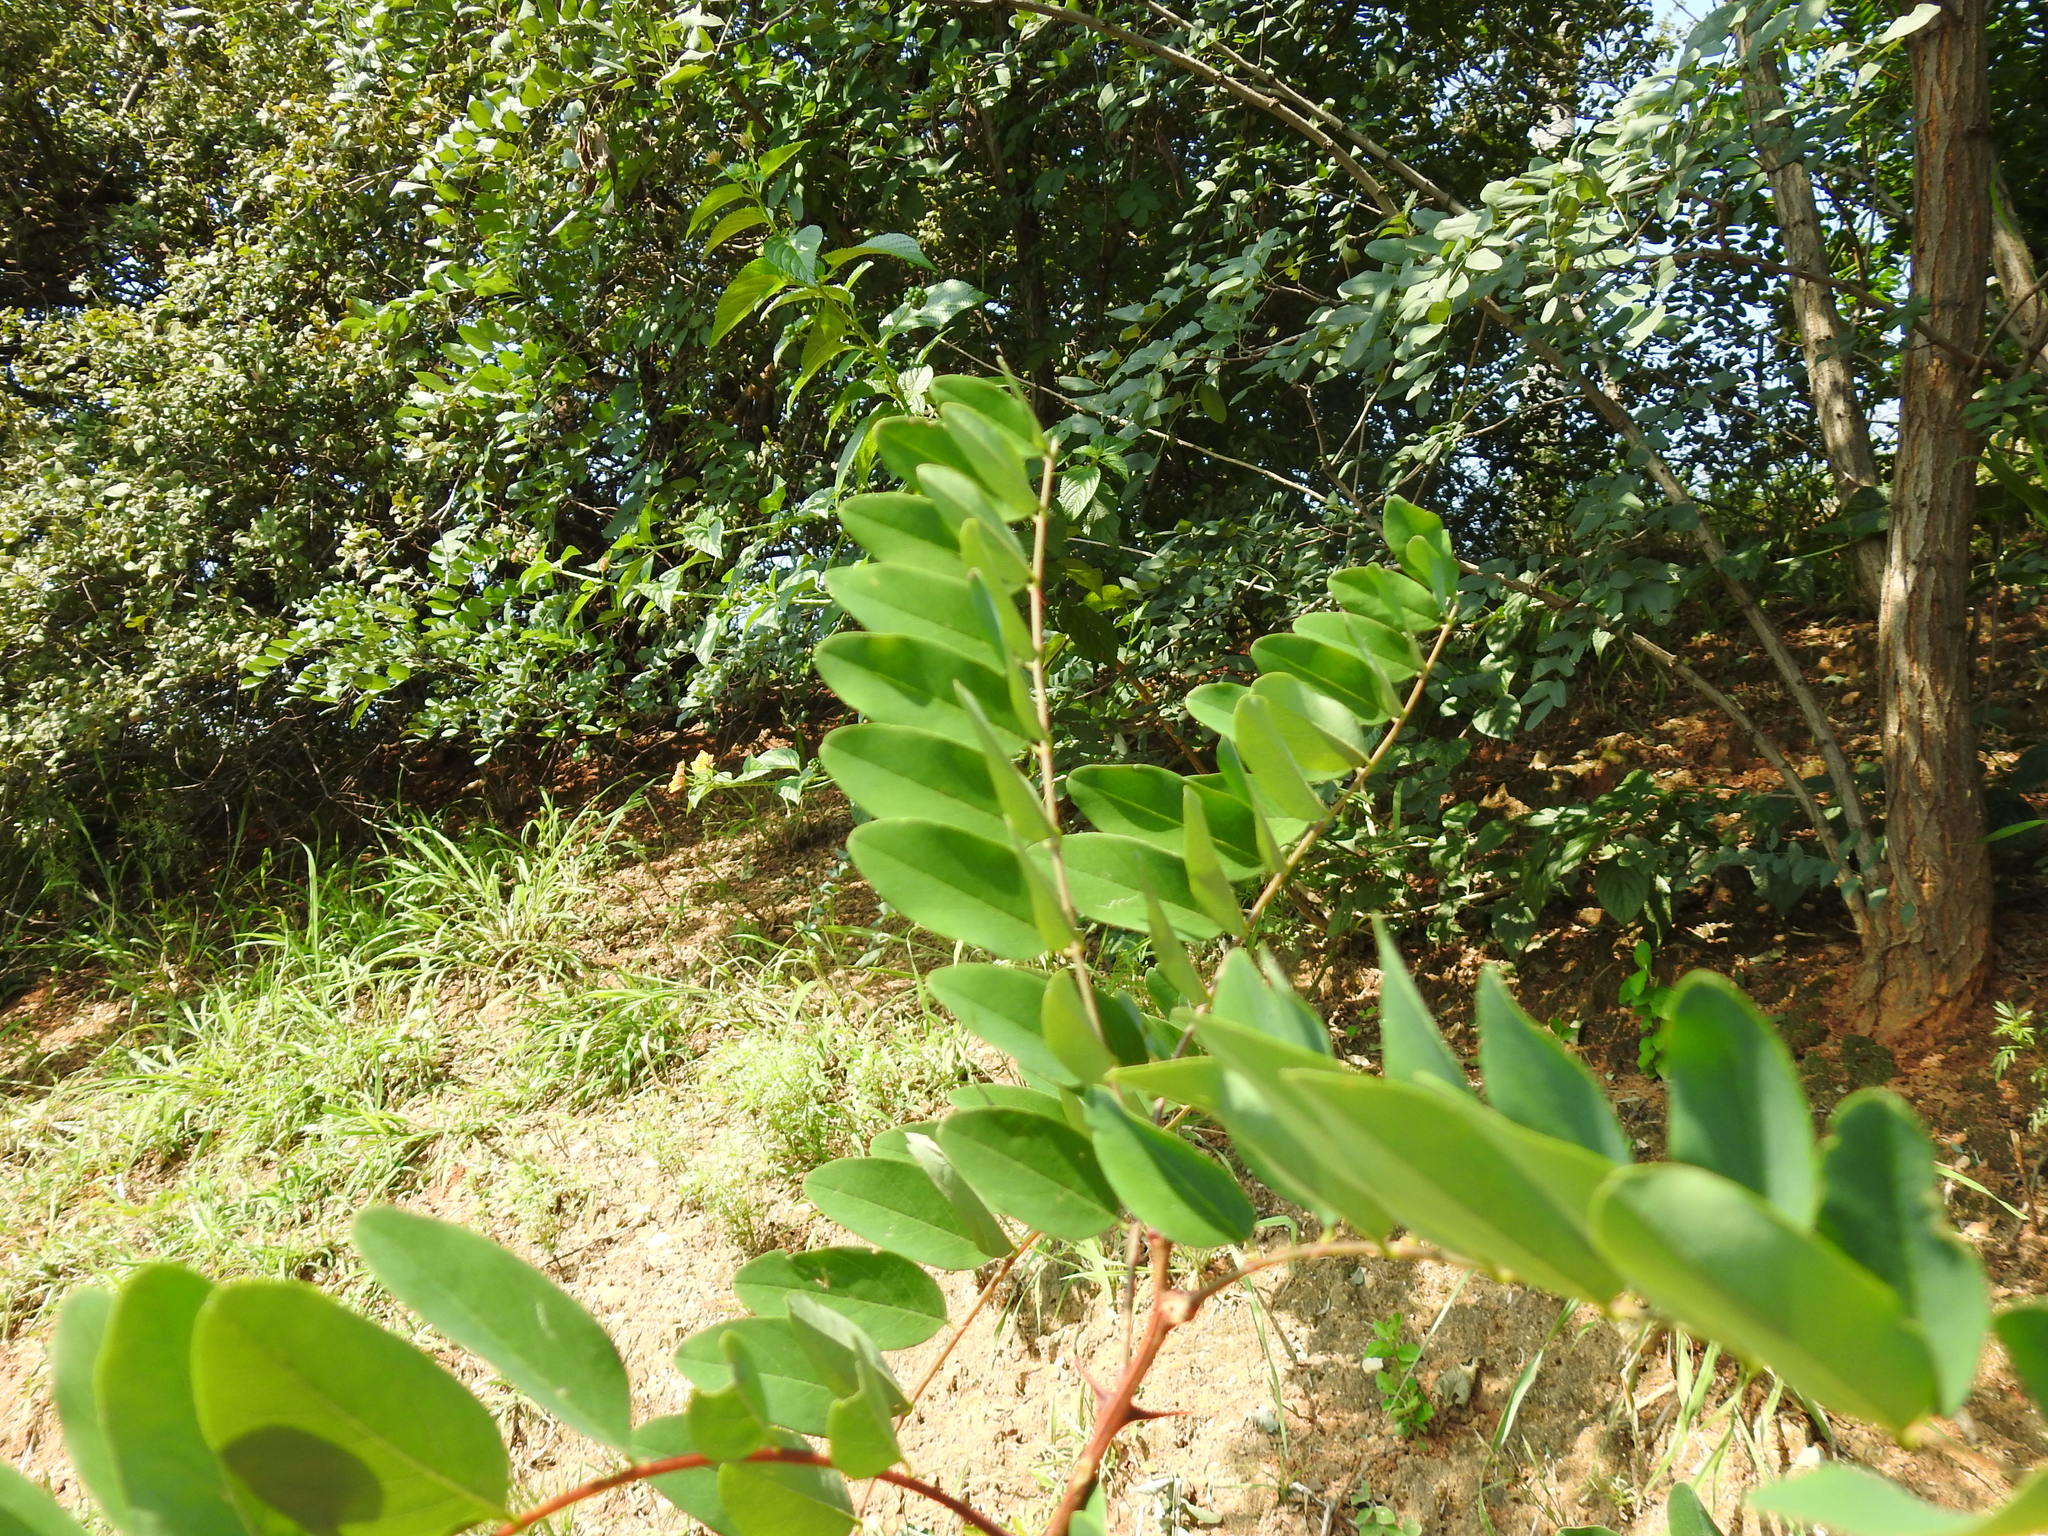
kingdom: Plantae
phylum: Tracheophyta
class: Magnoliopsida
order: Fabales
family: Fabaceae
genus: Robinia
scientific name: Robinia pseudoacacia
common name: Black locust
